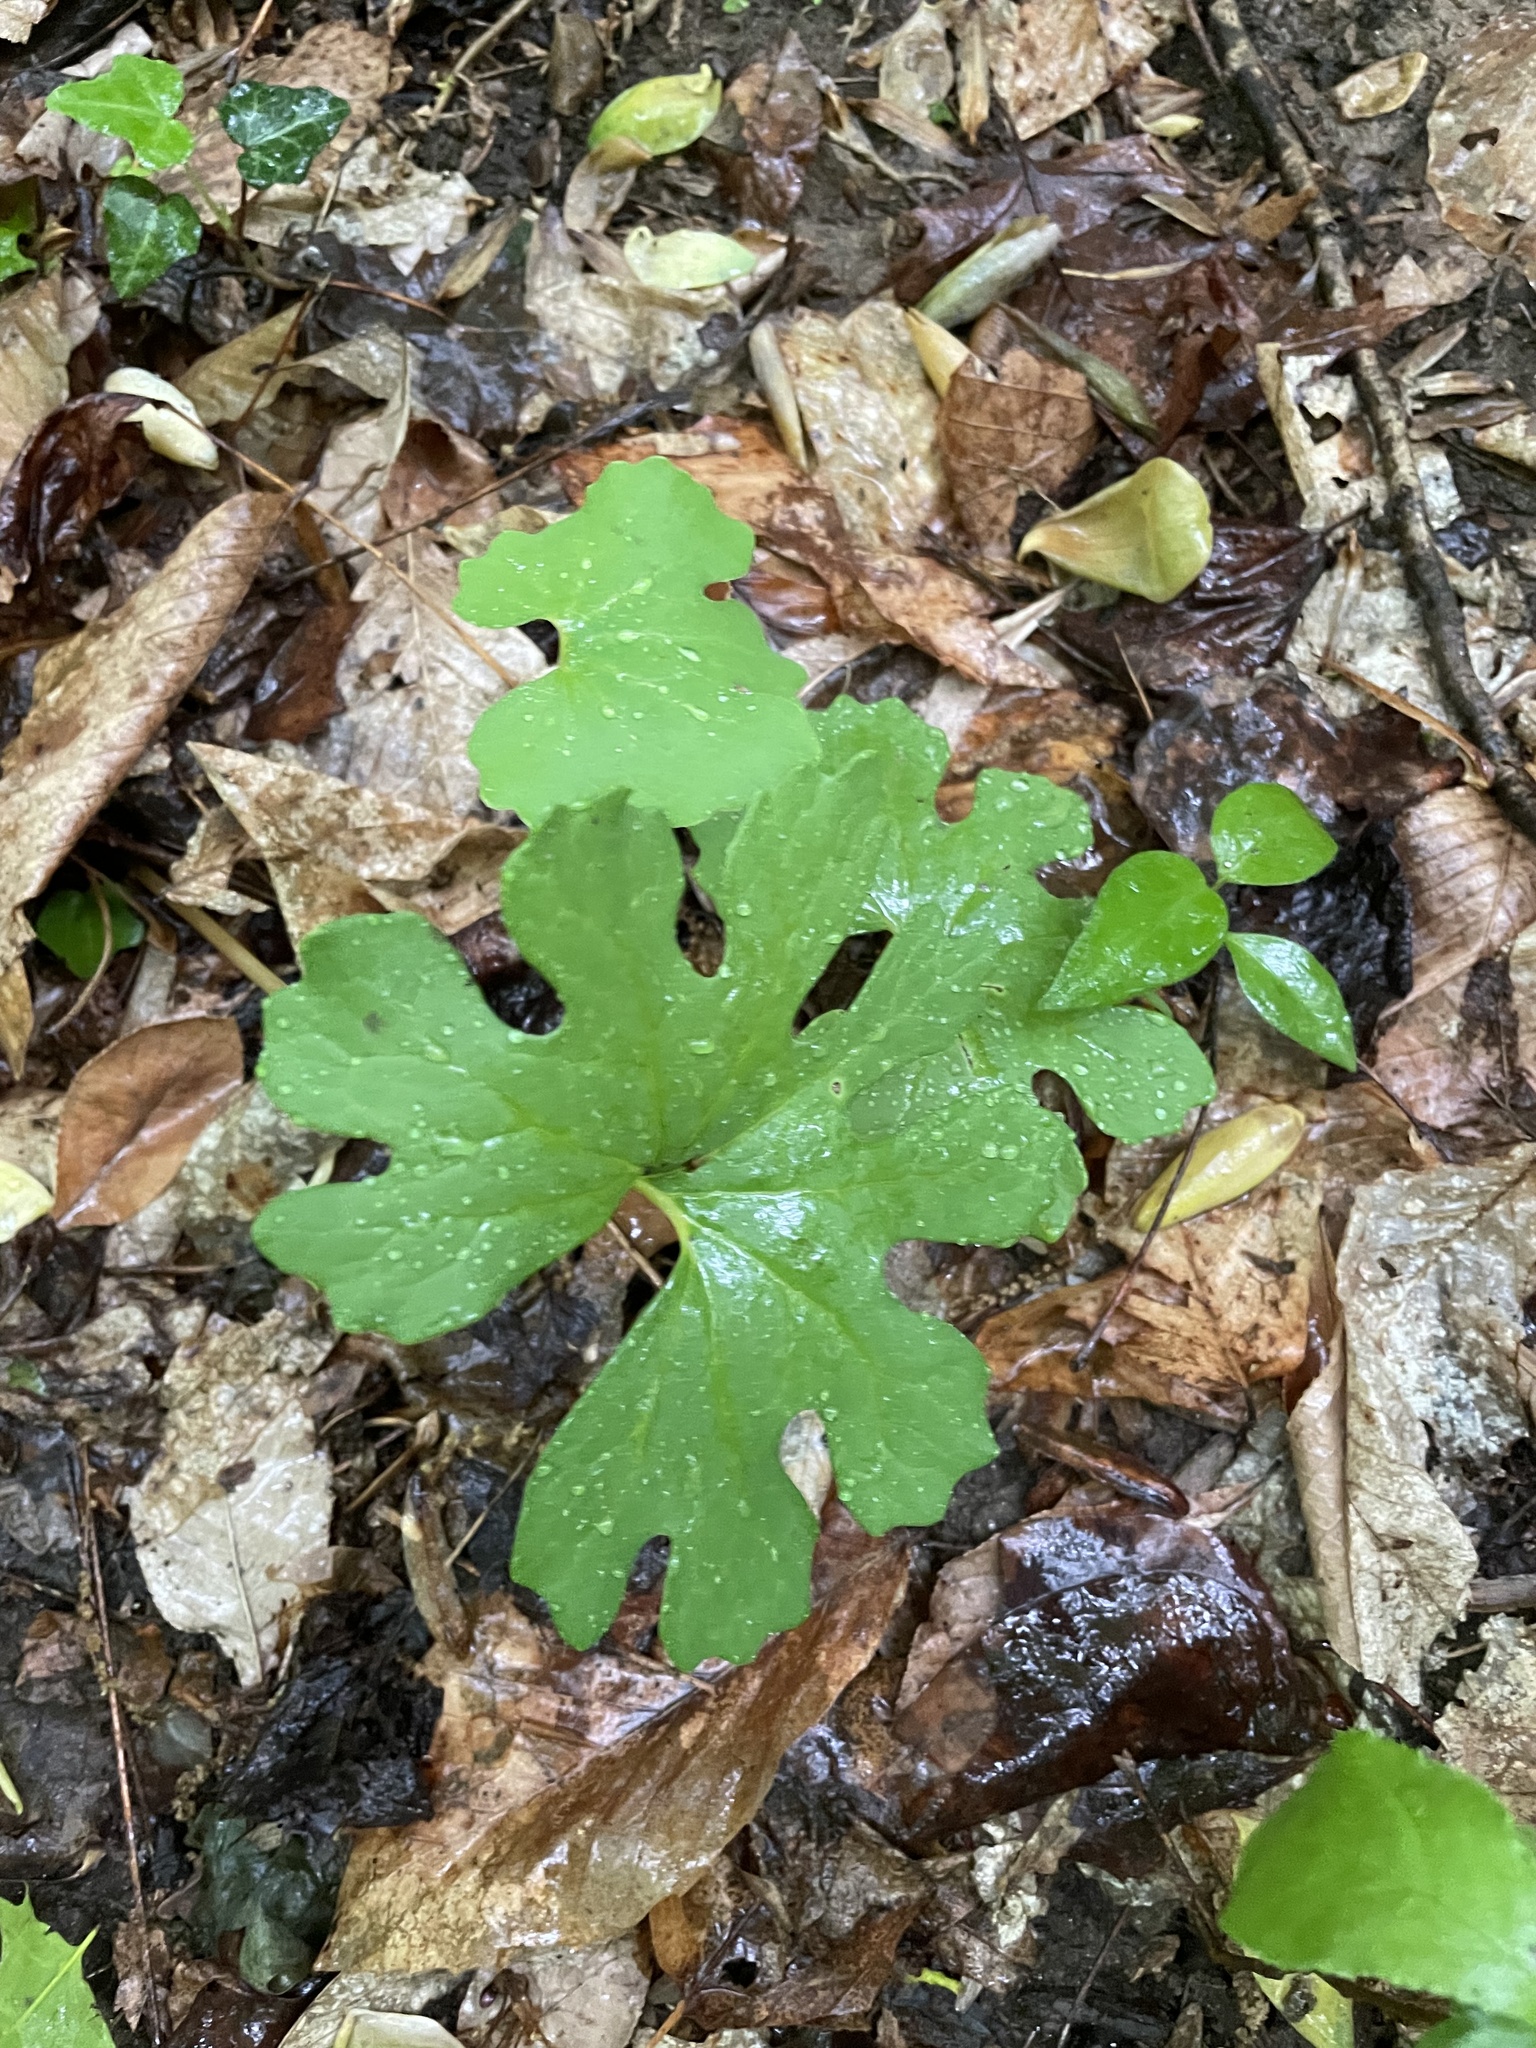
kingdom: Plantae
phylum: Tracheophyta
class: Magnoliopsida
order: Ranunculales
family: Papaveraceae
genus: Sanguinaria
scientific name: Sanguinaria canadensis
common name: Bloodroot
